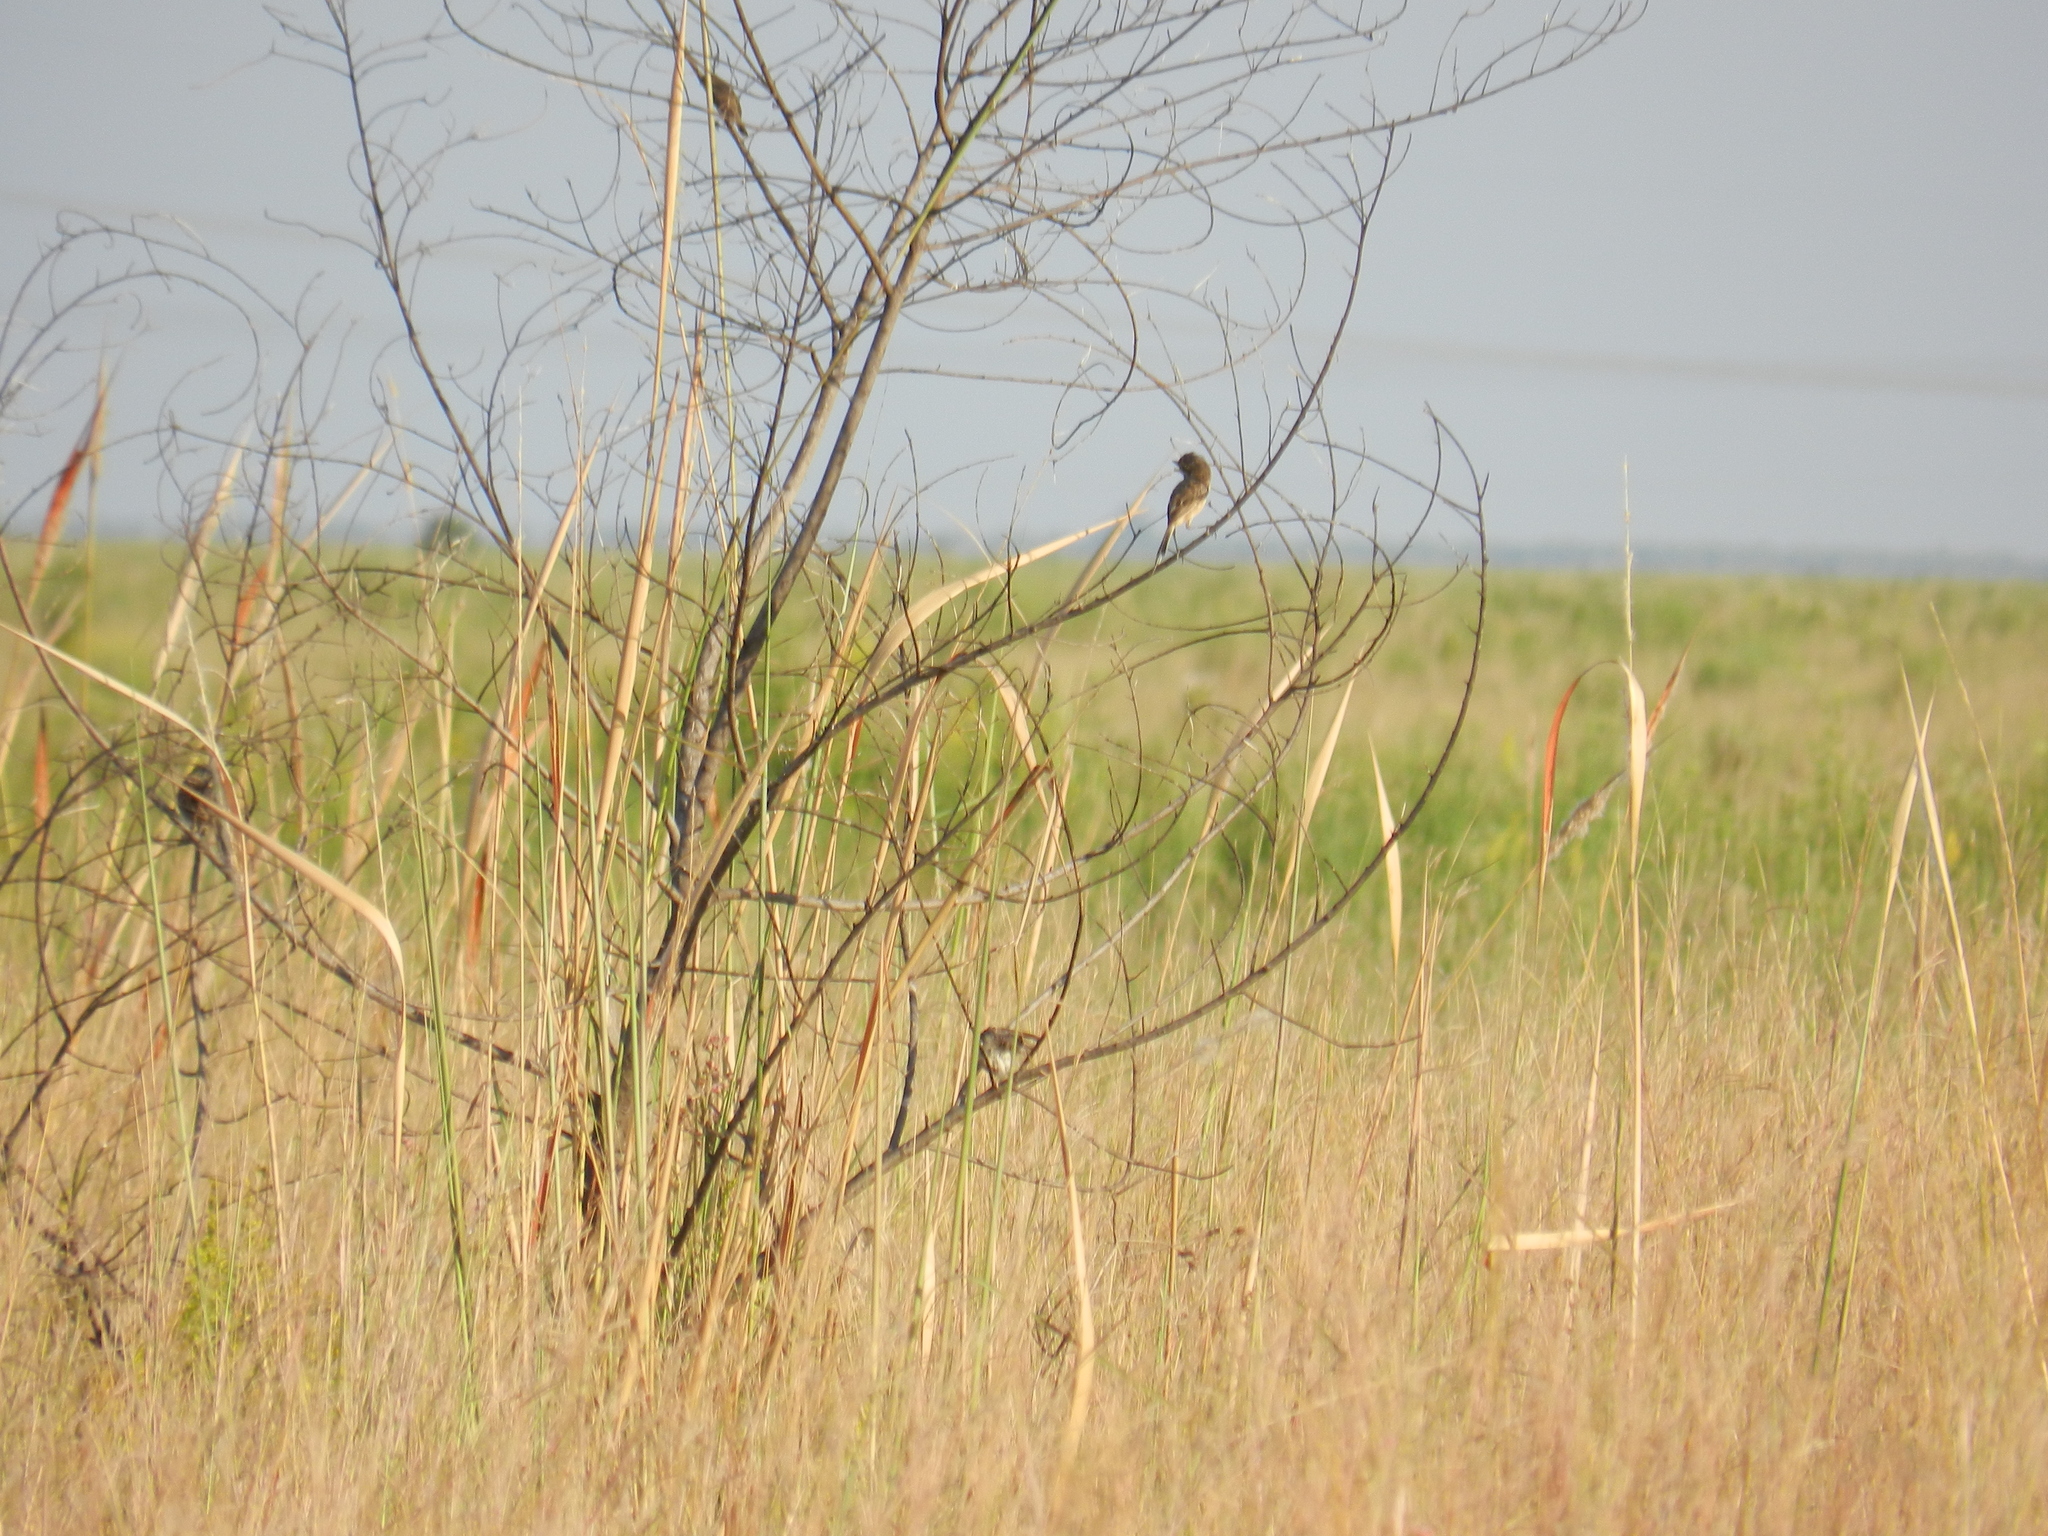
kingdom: Animalia
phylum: Chordata
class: Aves
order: Passeriformes
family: Tyrannidae
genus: Alectrurus
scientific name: Alectrurus risora
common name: Strange-tailed tyrant
